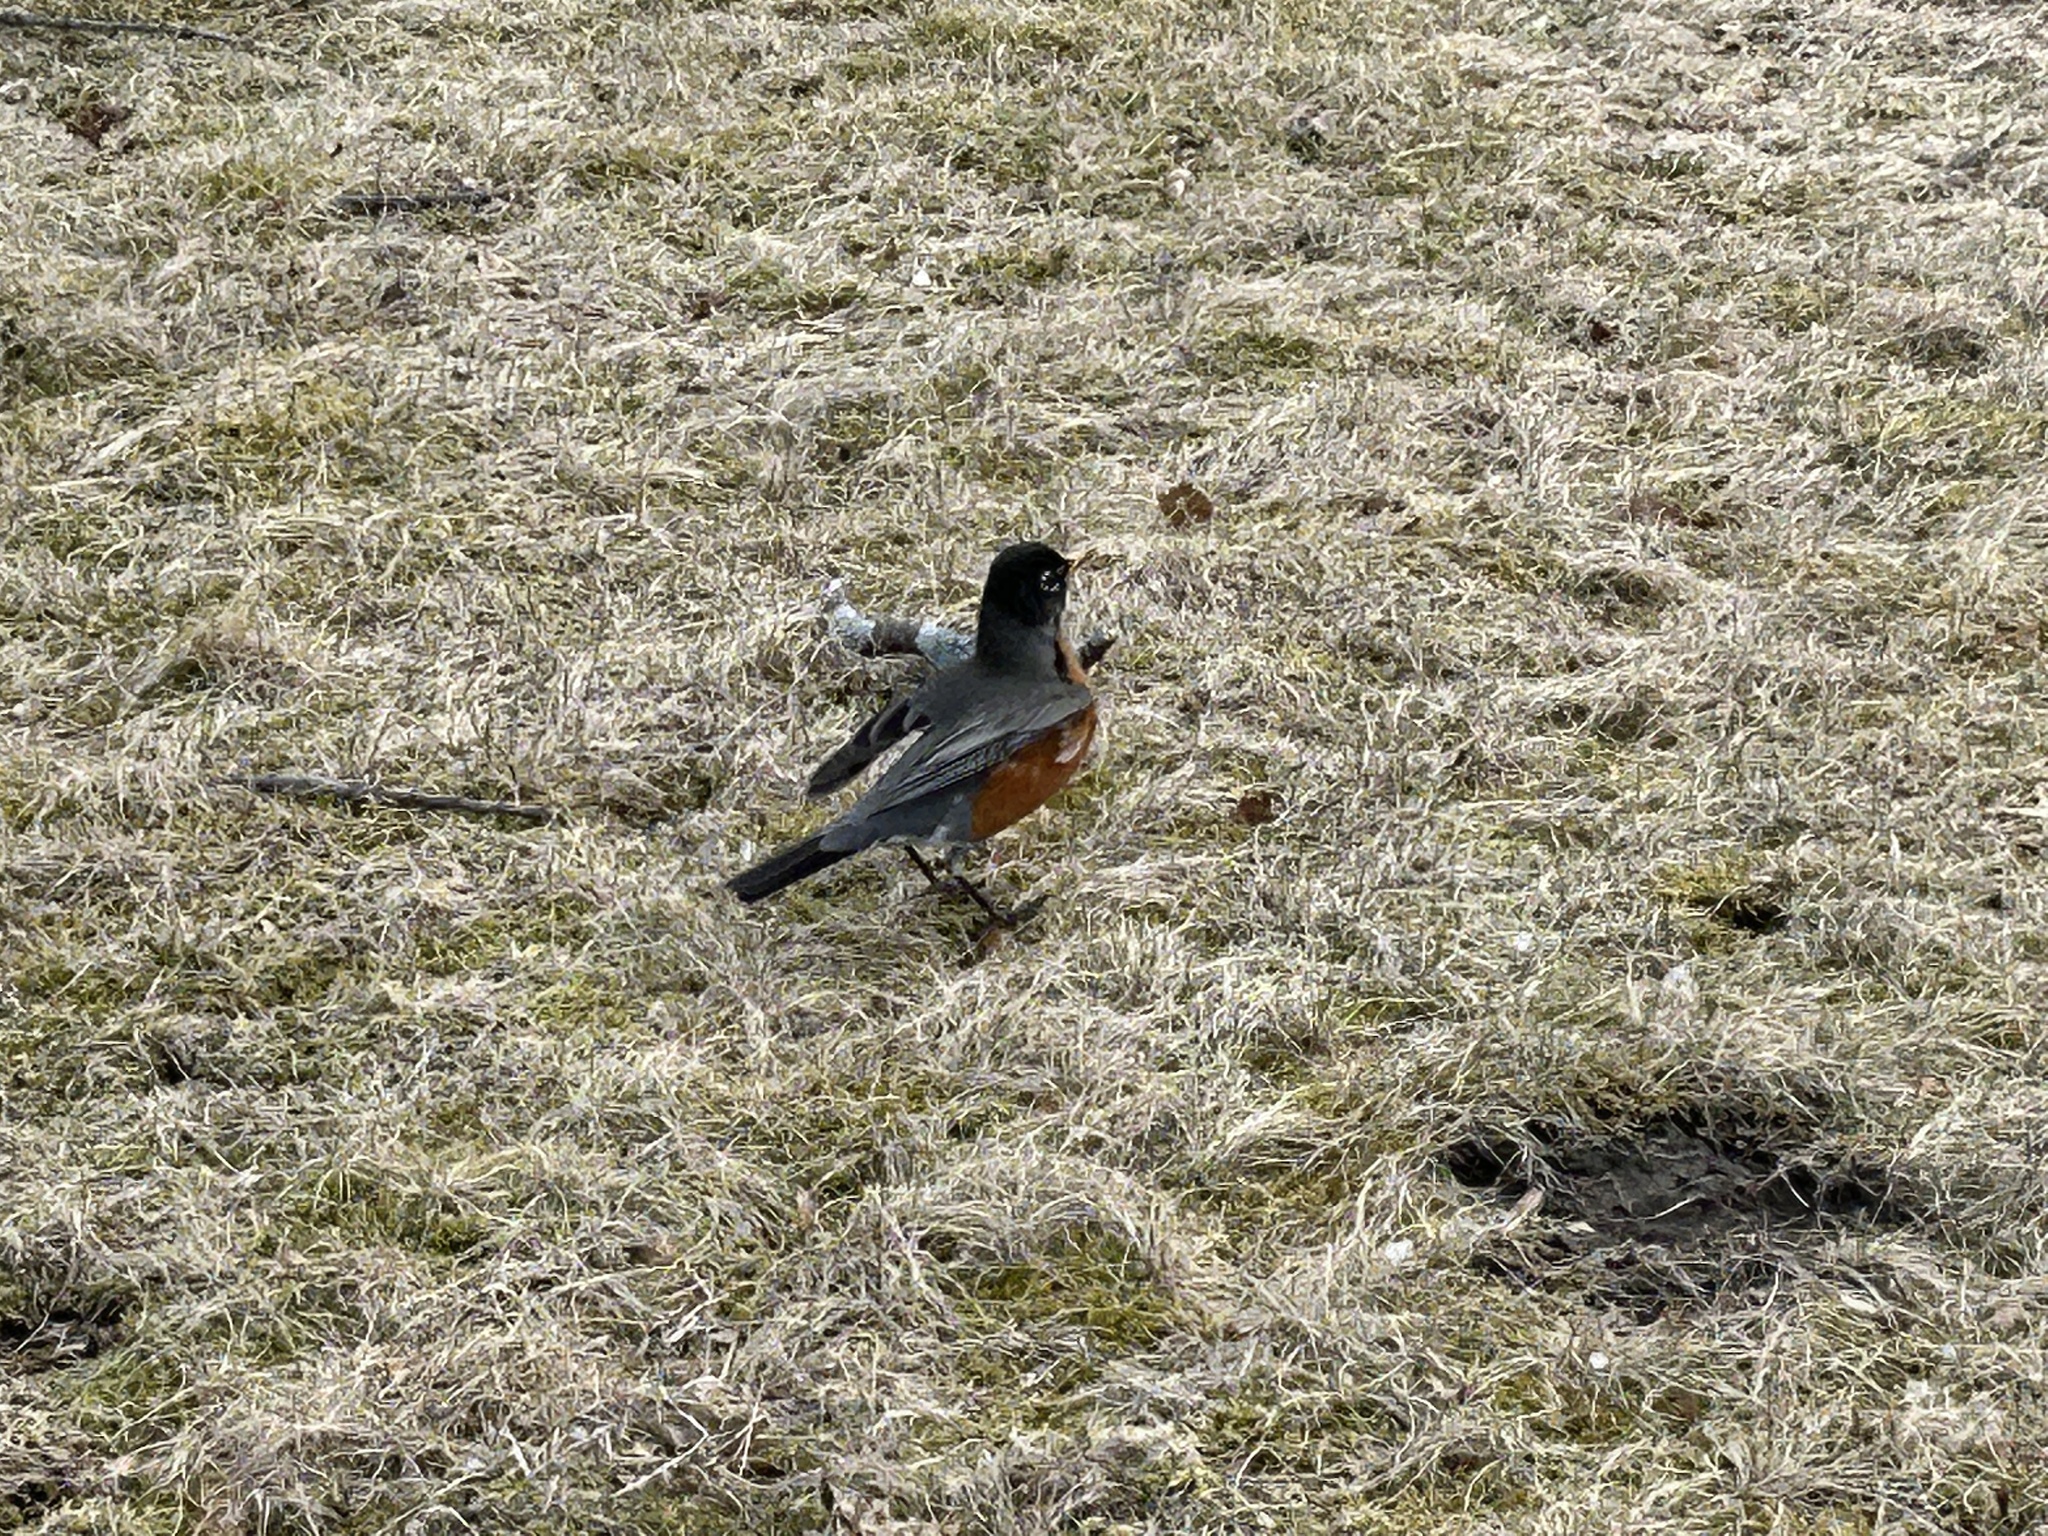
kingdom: Animalia
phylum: Chordata
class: Aves
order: Passeriformes
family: Turdidae
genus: Turdus
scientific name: Turdus migratorius
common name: American robin
